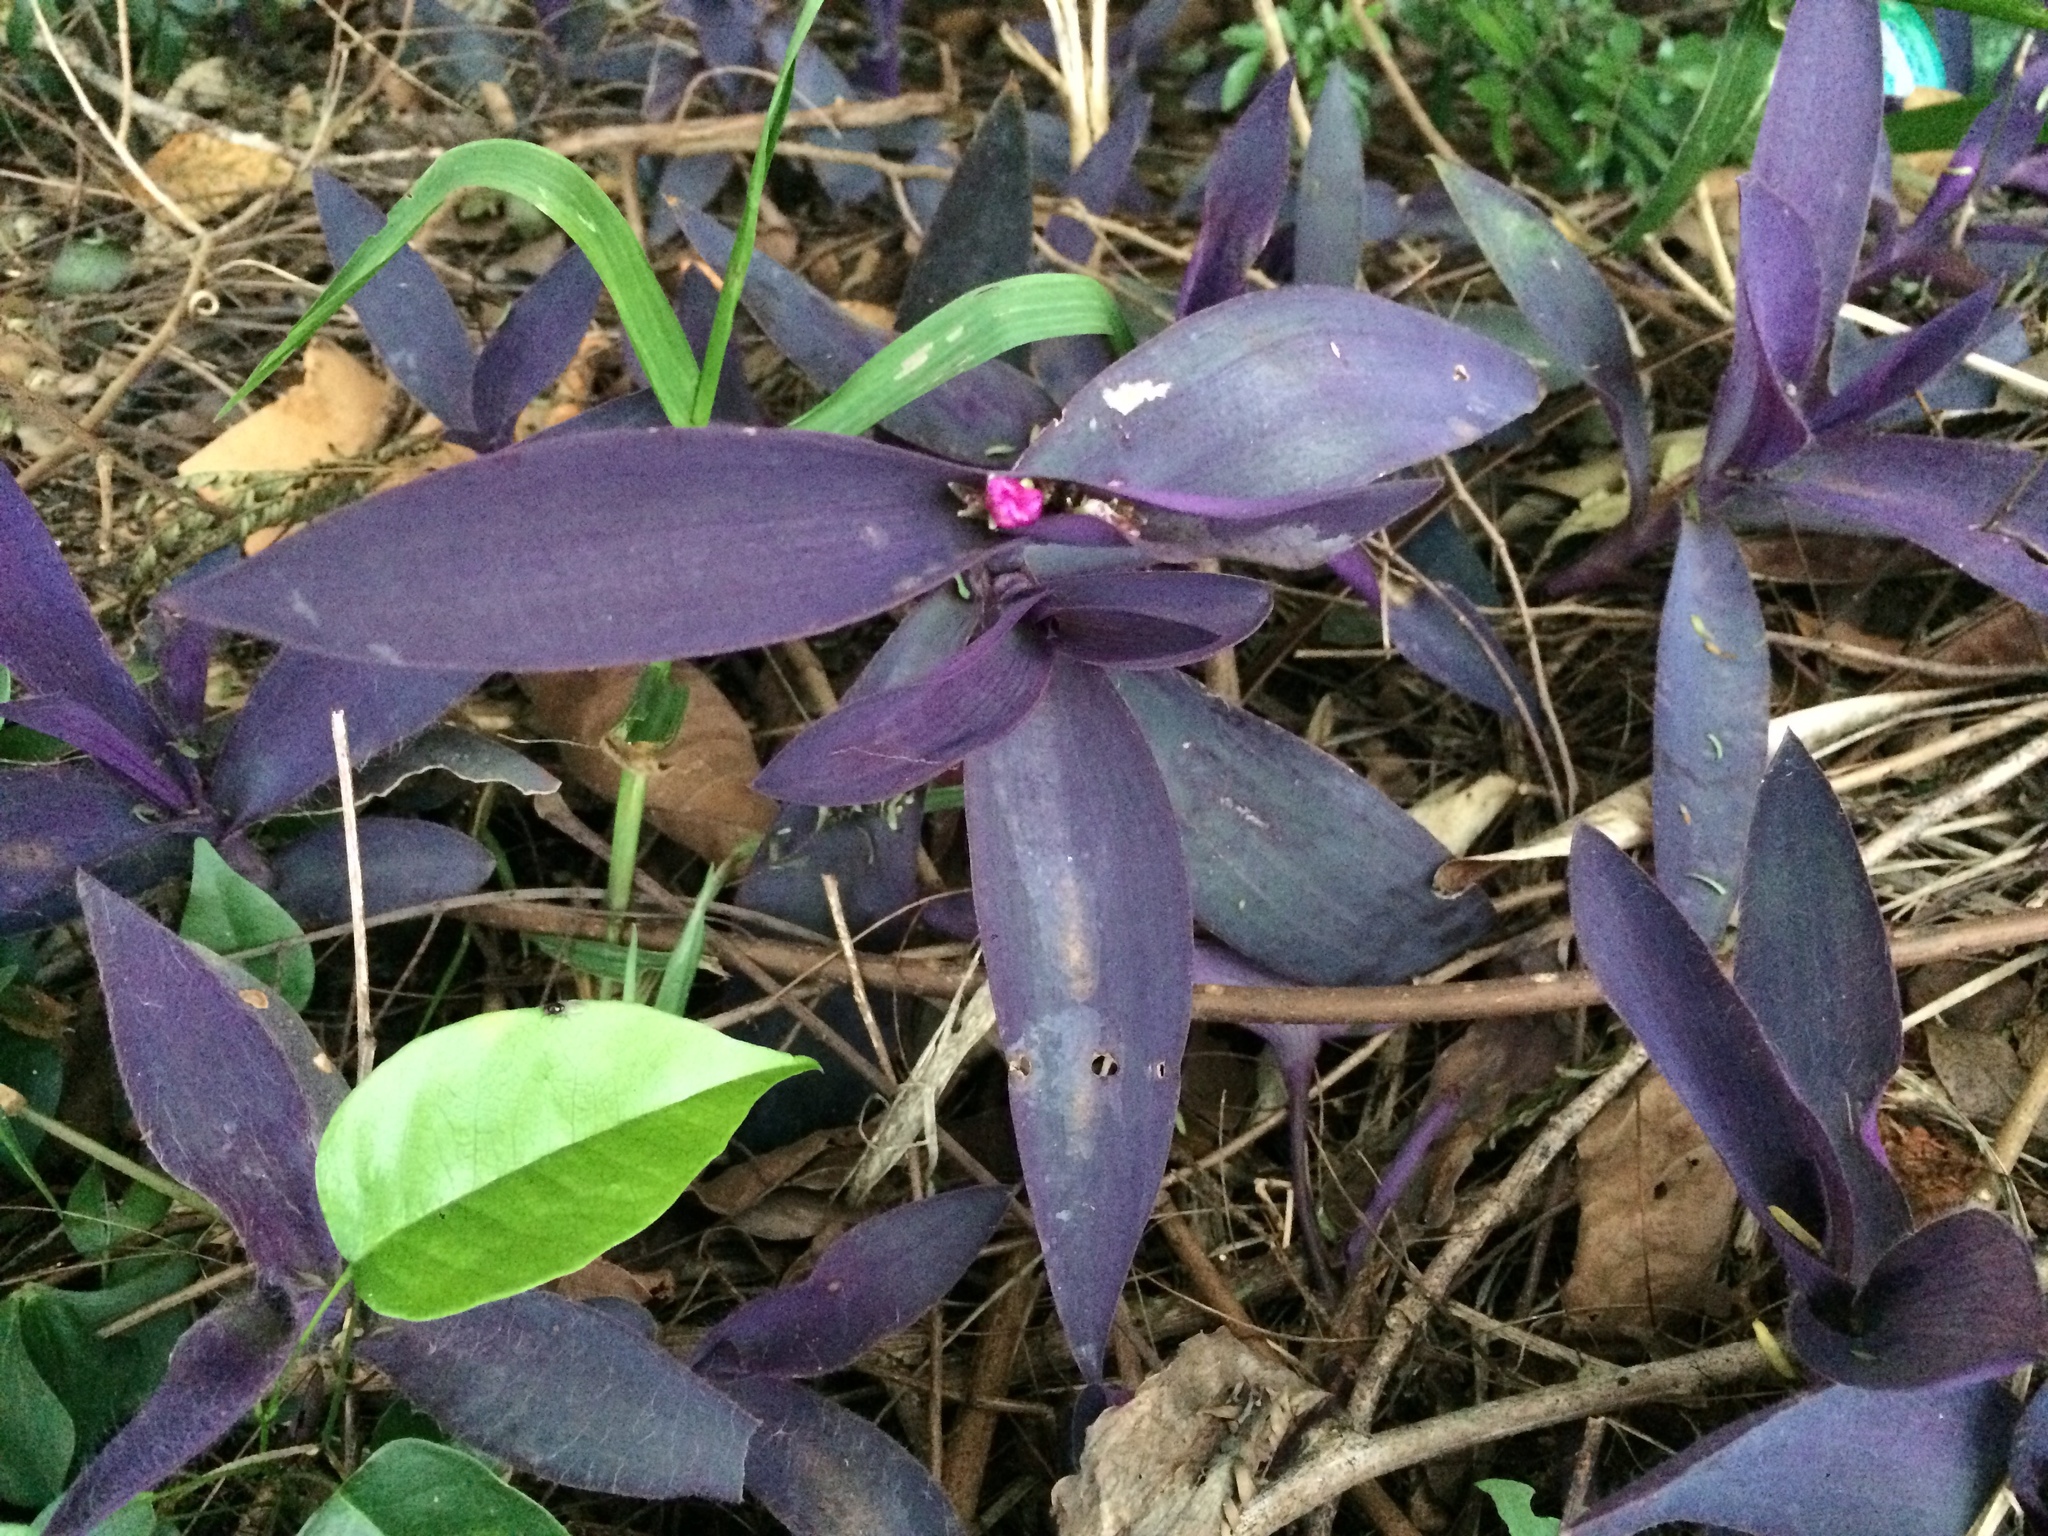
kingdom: Plantae
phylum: Tracheophyta
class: Liliopsida
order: Commelinales
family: Commelinaceae
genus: Tradescantia
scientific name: Tradescantia pallida
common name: Purpleheart
